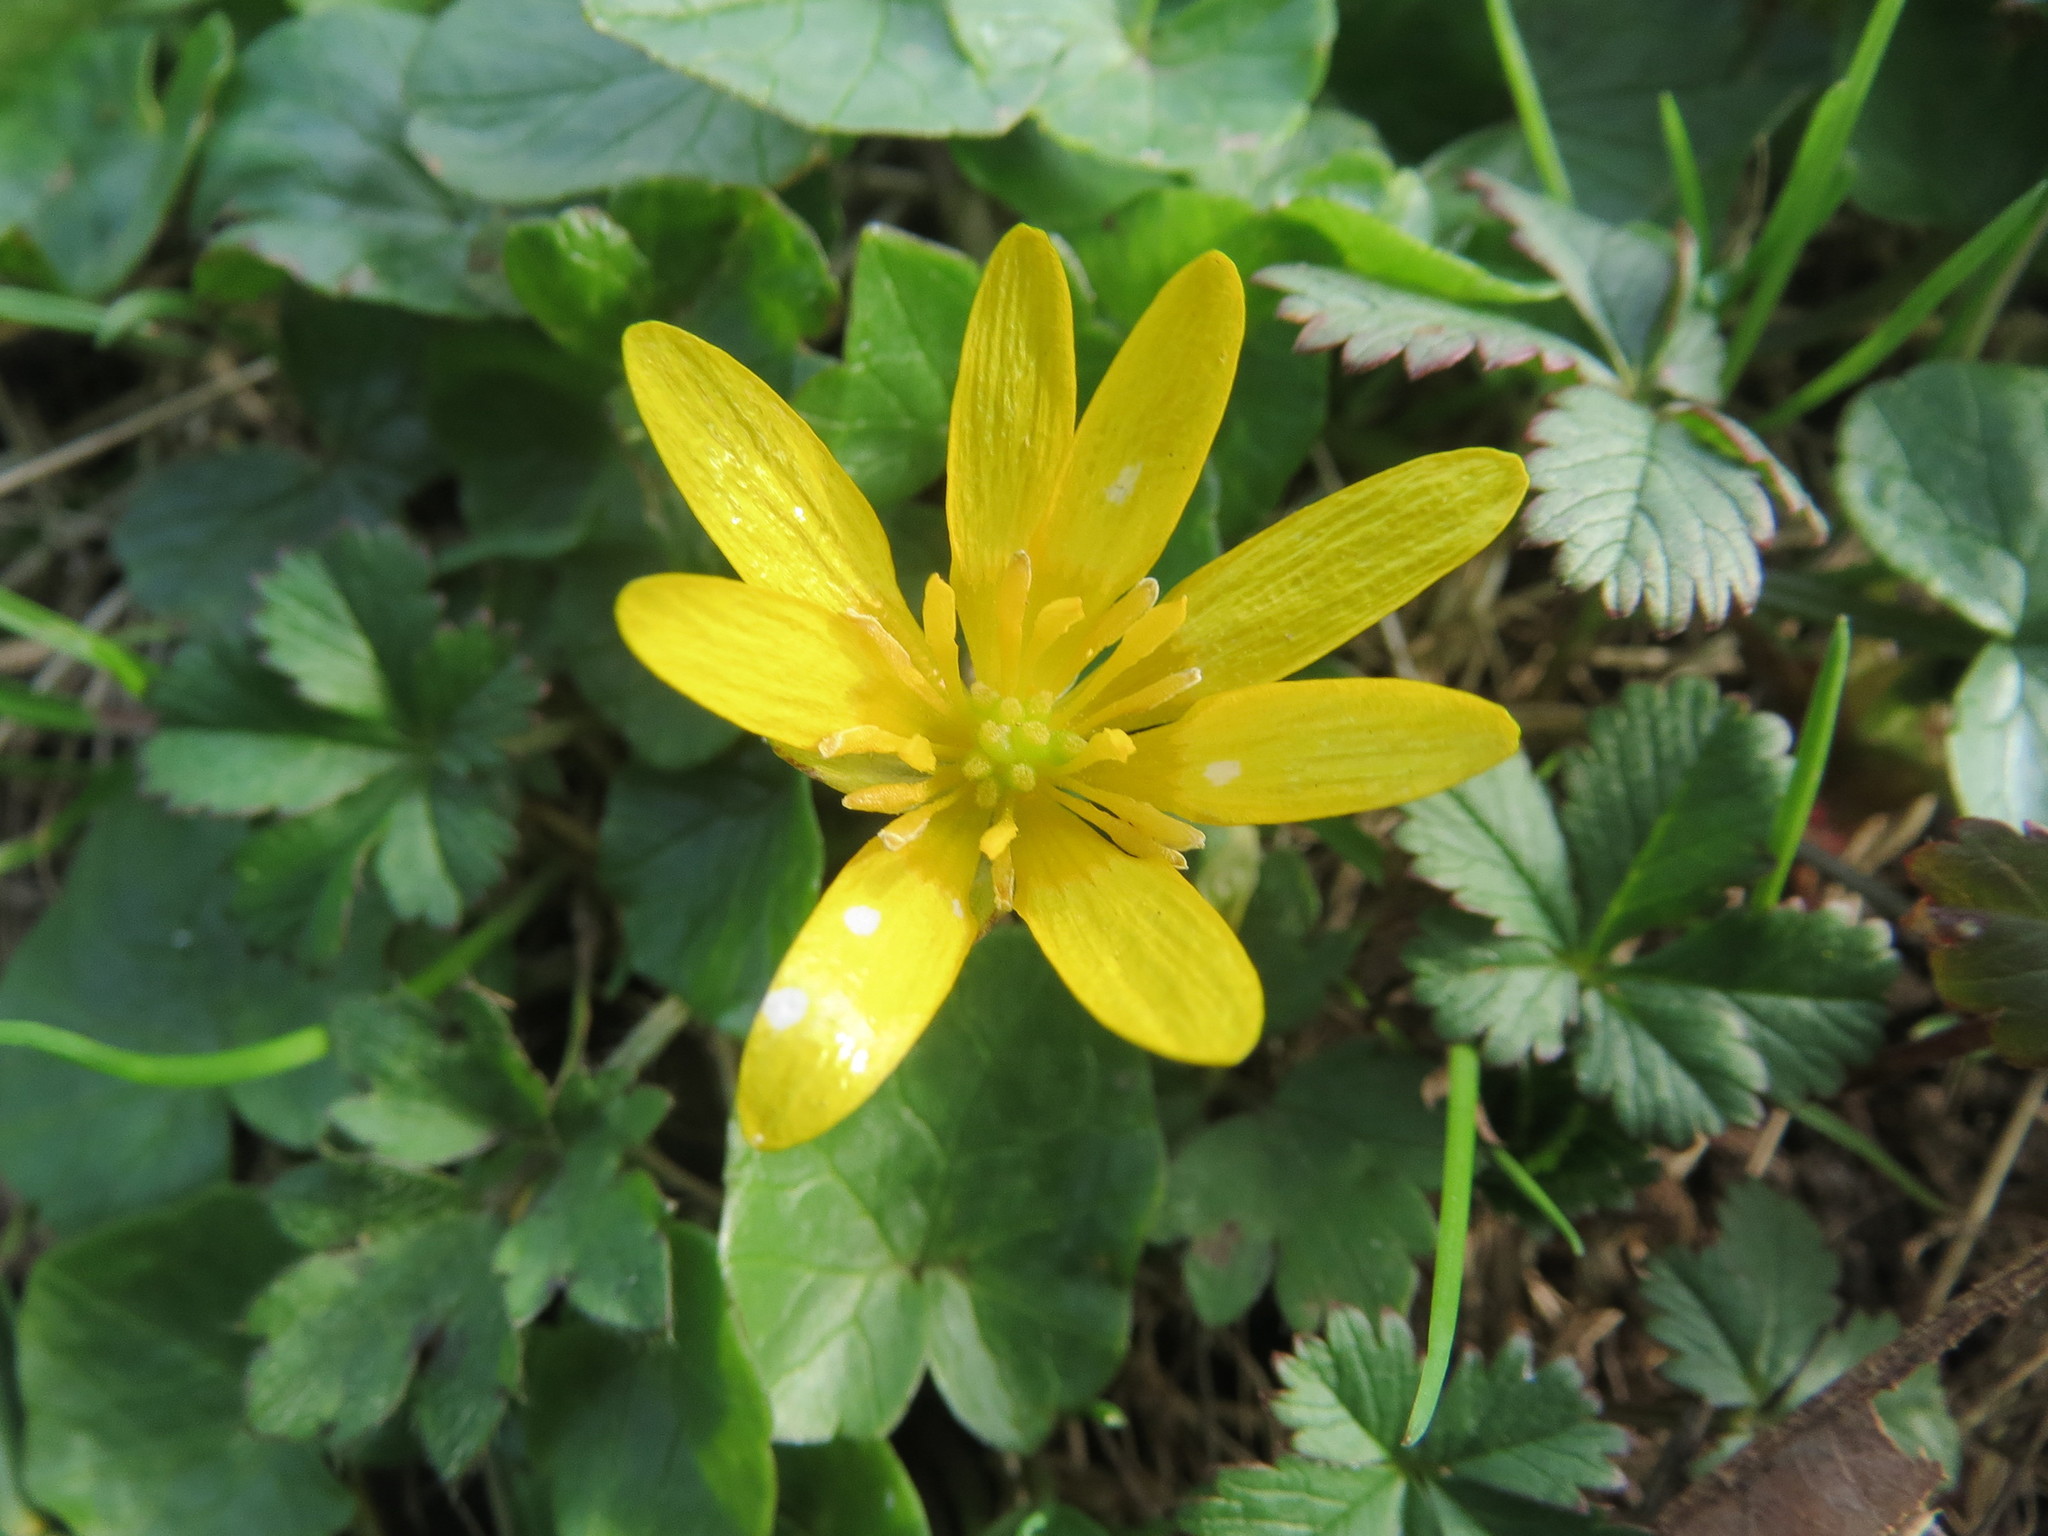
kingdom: Plantae
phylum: Tracheophyta
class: Magnoliopsida
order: Ranunculales
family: Ranunculaceae
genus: Ficaria
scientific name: Ficaria verna
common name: Lesser celandine
